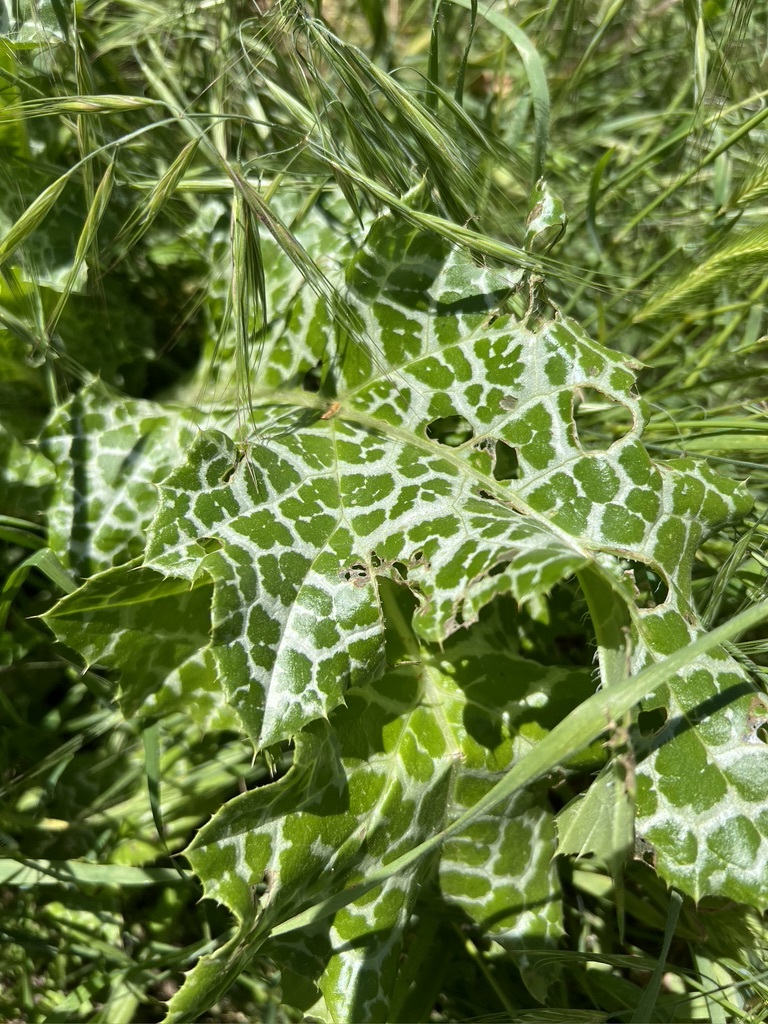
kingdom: Plantae
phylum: Tracheophyta
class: Magnoliopsida
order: Asterales
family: Asteraceae
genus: Silybum
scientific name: Silybum marianum
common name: Milk thistle
